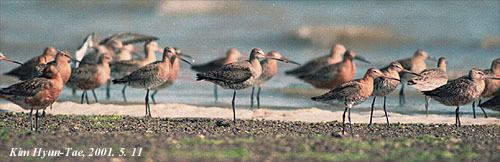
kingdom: Animalia
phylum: Chordata
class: Aves
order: Charadriiformes
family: Scolopacidae
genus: Limosa
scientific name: Limosa lapponica
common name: Bar-tailed godwit
